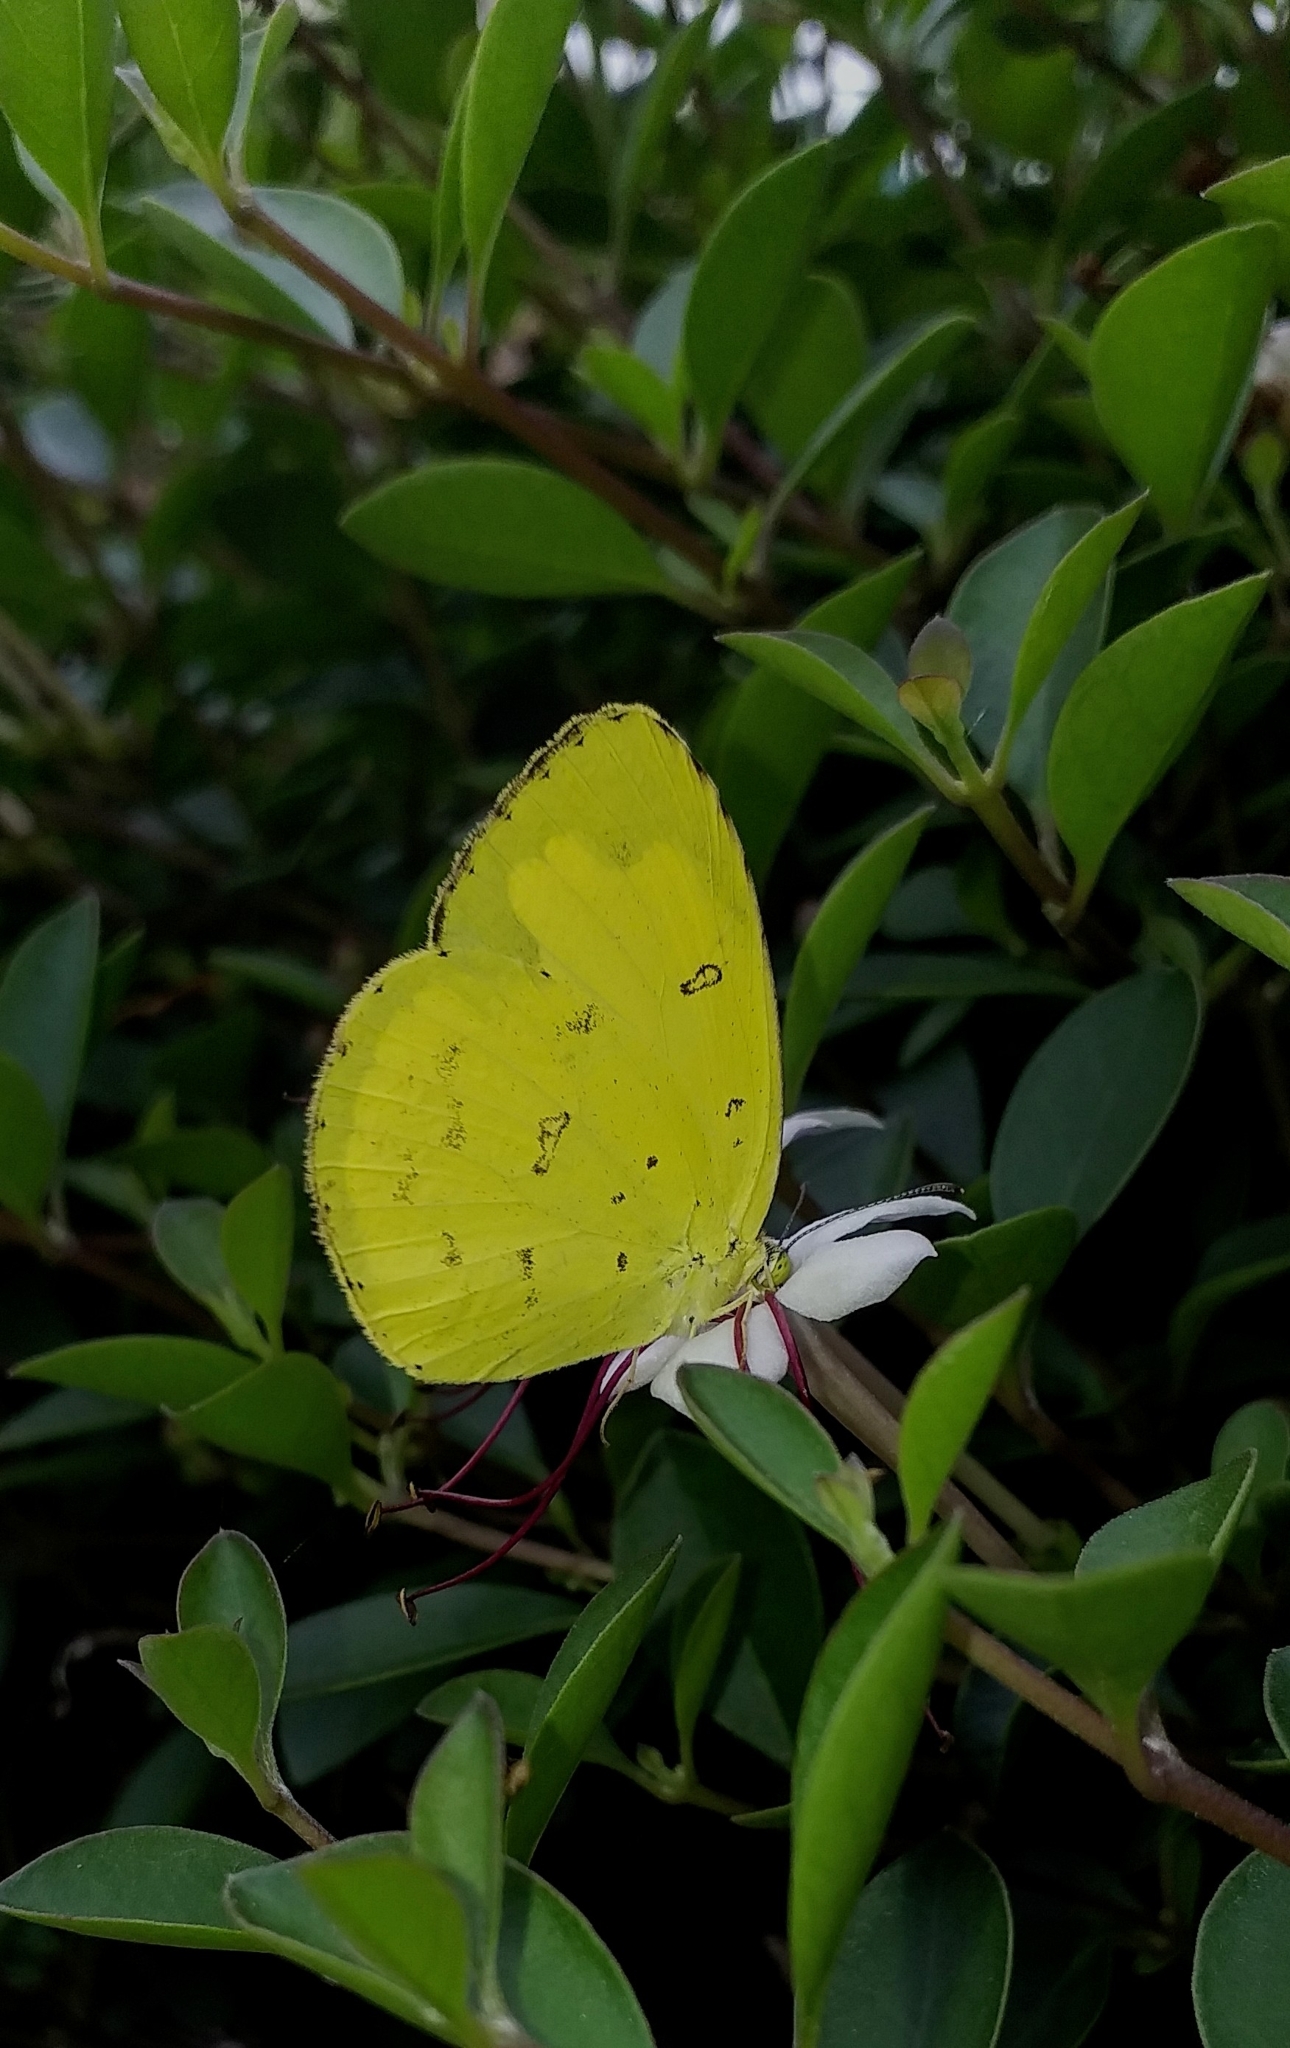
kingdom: Animalia
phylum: Arthropoda
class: Insecta
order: Lepidoptera
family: Pieridae
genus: Eurema
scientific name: Eurema hecabe
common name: Pale grass yellow
